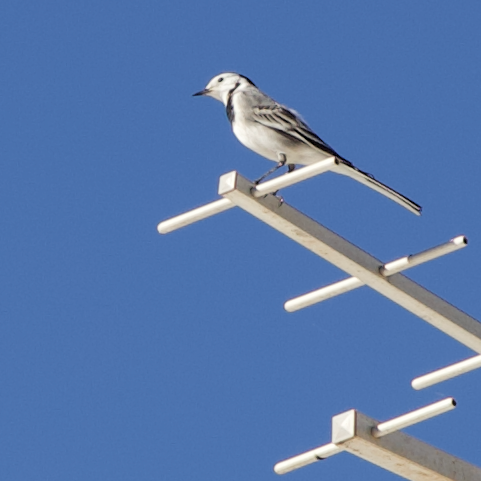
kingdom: Animalia
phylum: Chordata
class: Aves
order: Passeriformes
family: Motacillidae
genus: Motacilla
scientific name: Motacilla alba
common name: White wagtail
